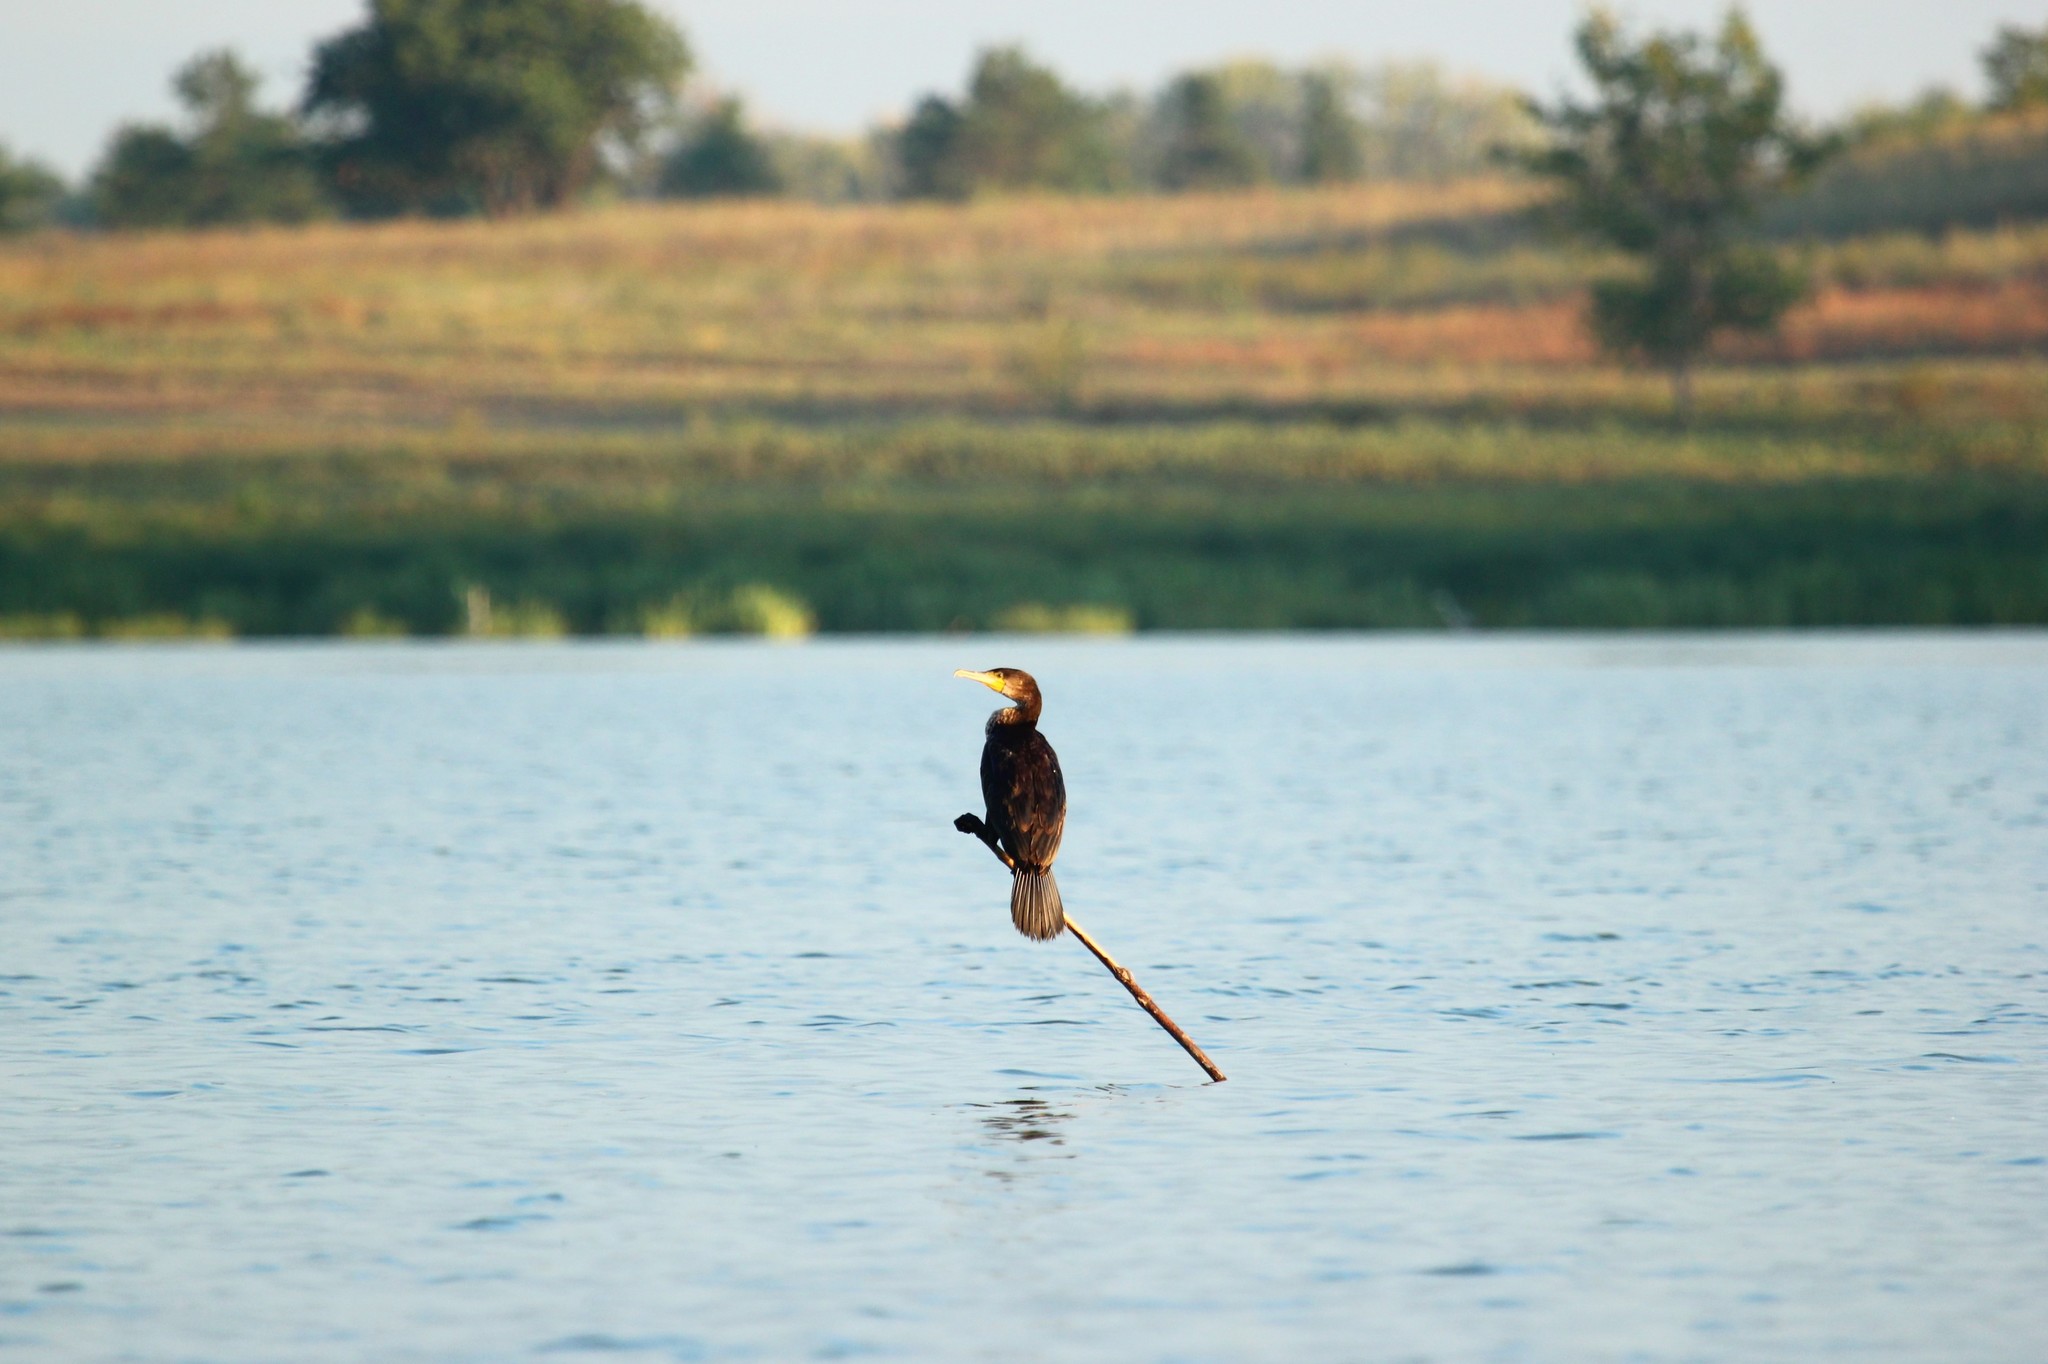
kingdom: Animalia
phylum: Chordata
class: Aves
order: Suliformes
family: Phalacrocoracidae
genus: Phalacrocorax
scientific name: Phalacrocorax carbo
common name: Great cormorant
